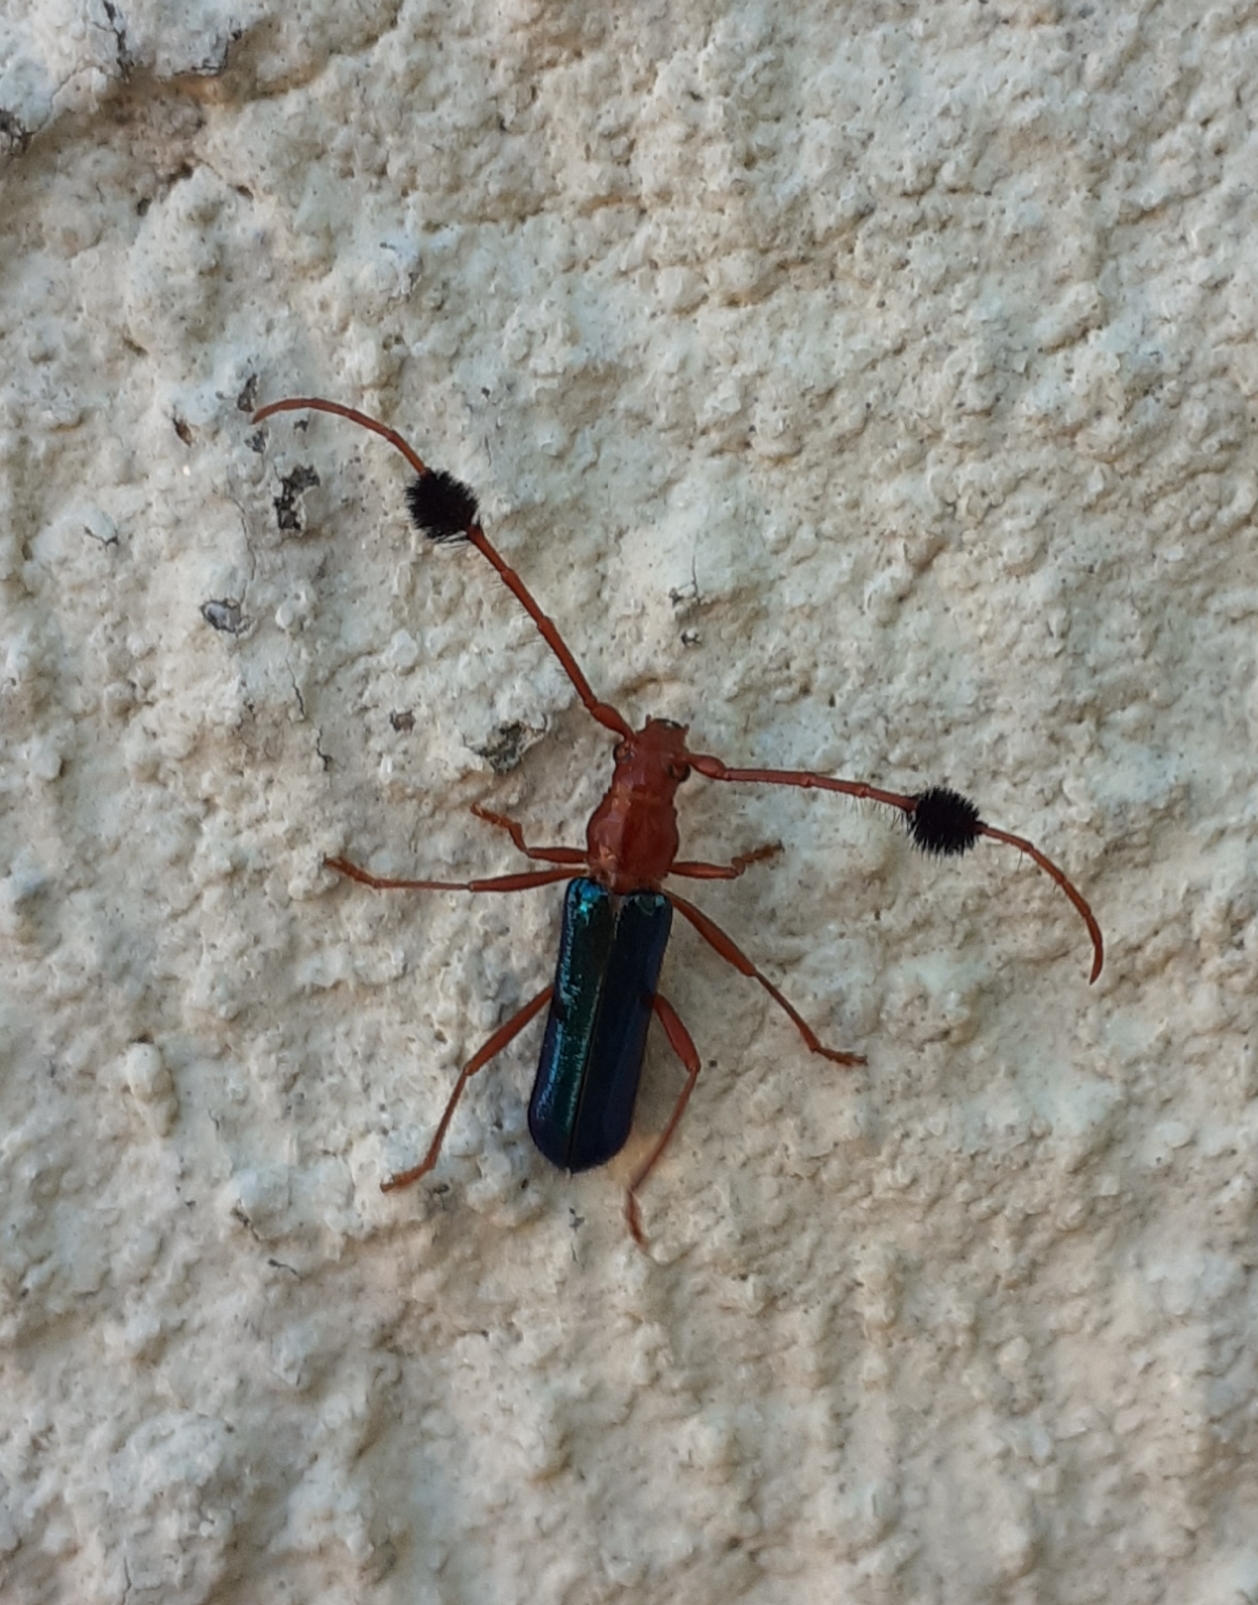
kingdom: Animalia
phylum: Arthropoda
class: Insecta
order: Coleoptera
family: Cerambycidae
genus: Compsocerus
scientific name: Compsocerus violaceus
